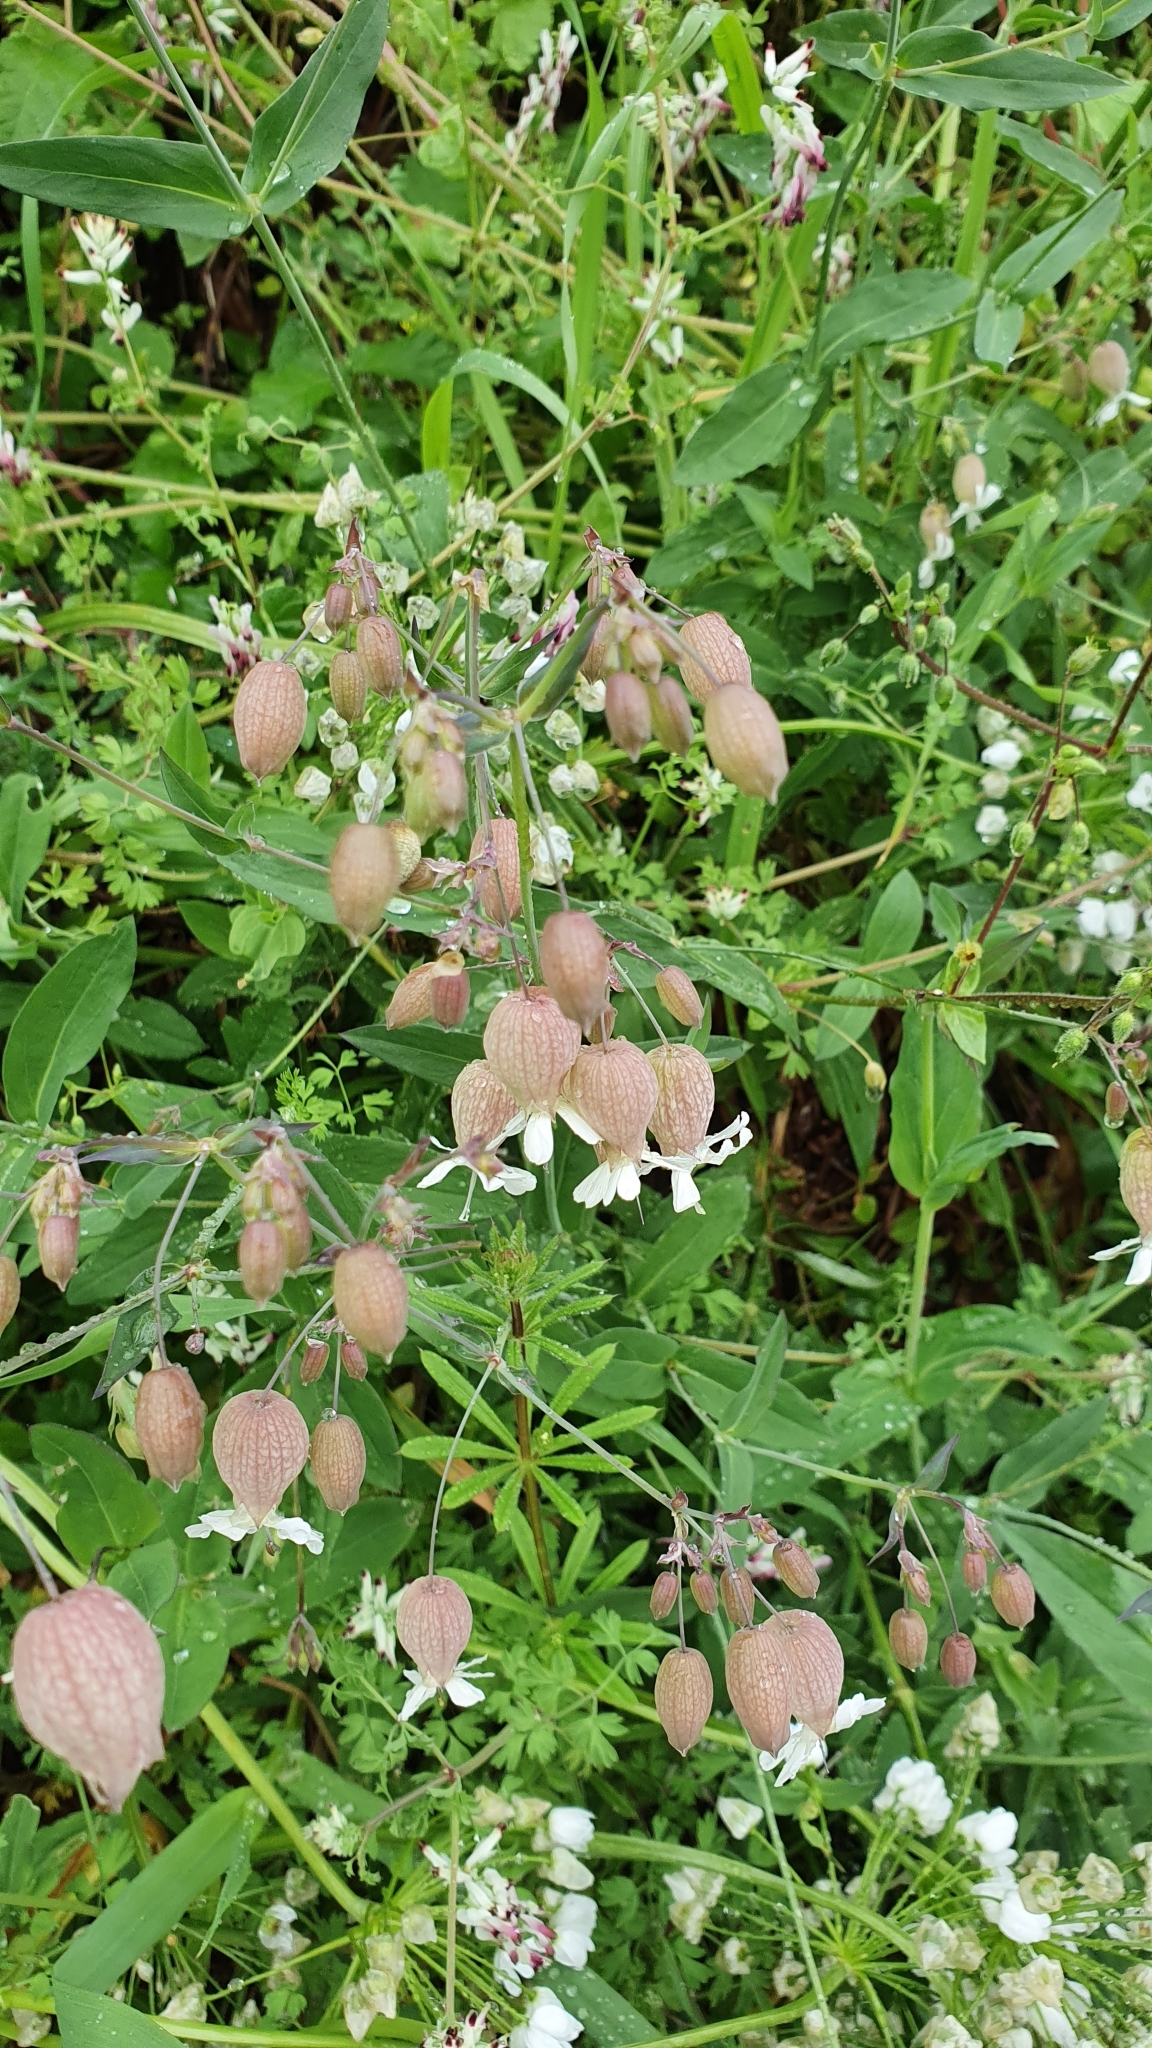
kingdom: Plantae
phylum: Tracheophyta
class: Magnoliopsida
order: Caryophyllales
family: Caryophyllaceae
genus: Silene
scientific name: Silene vulgaris
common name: Bladder campion
